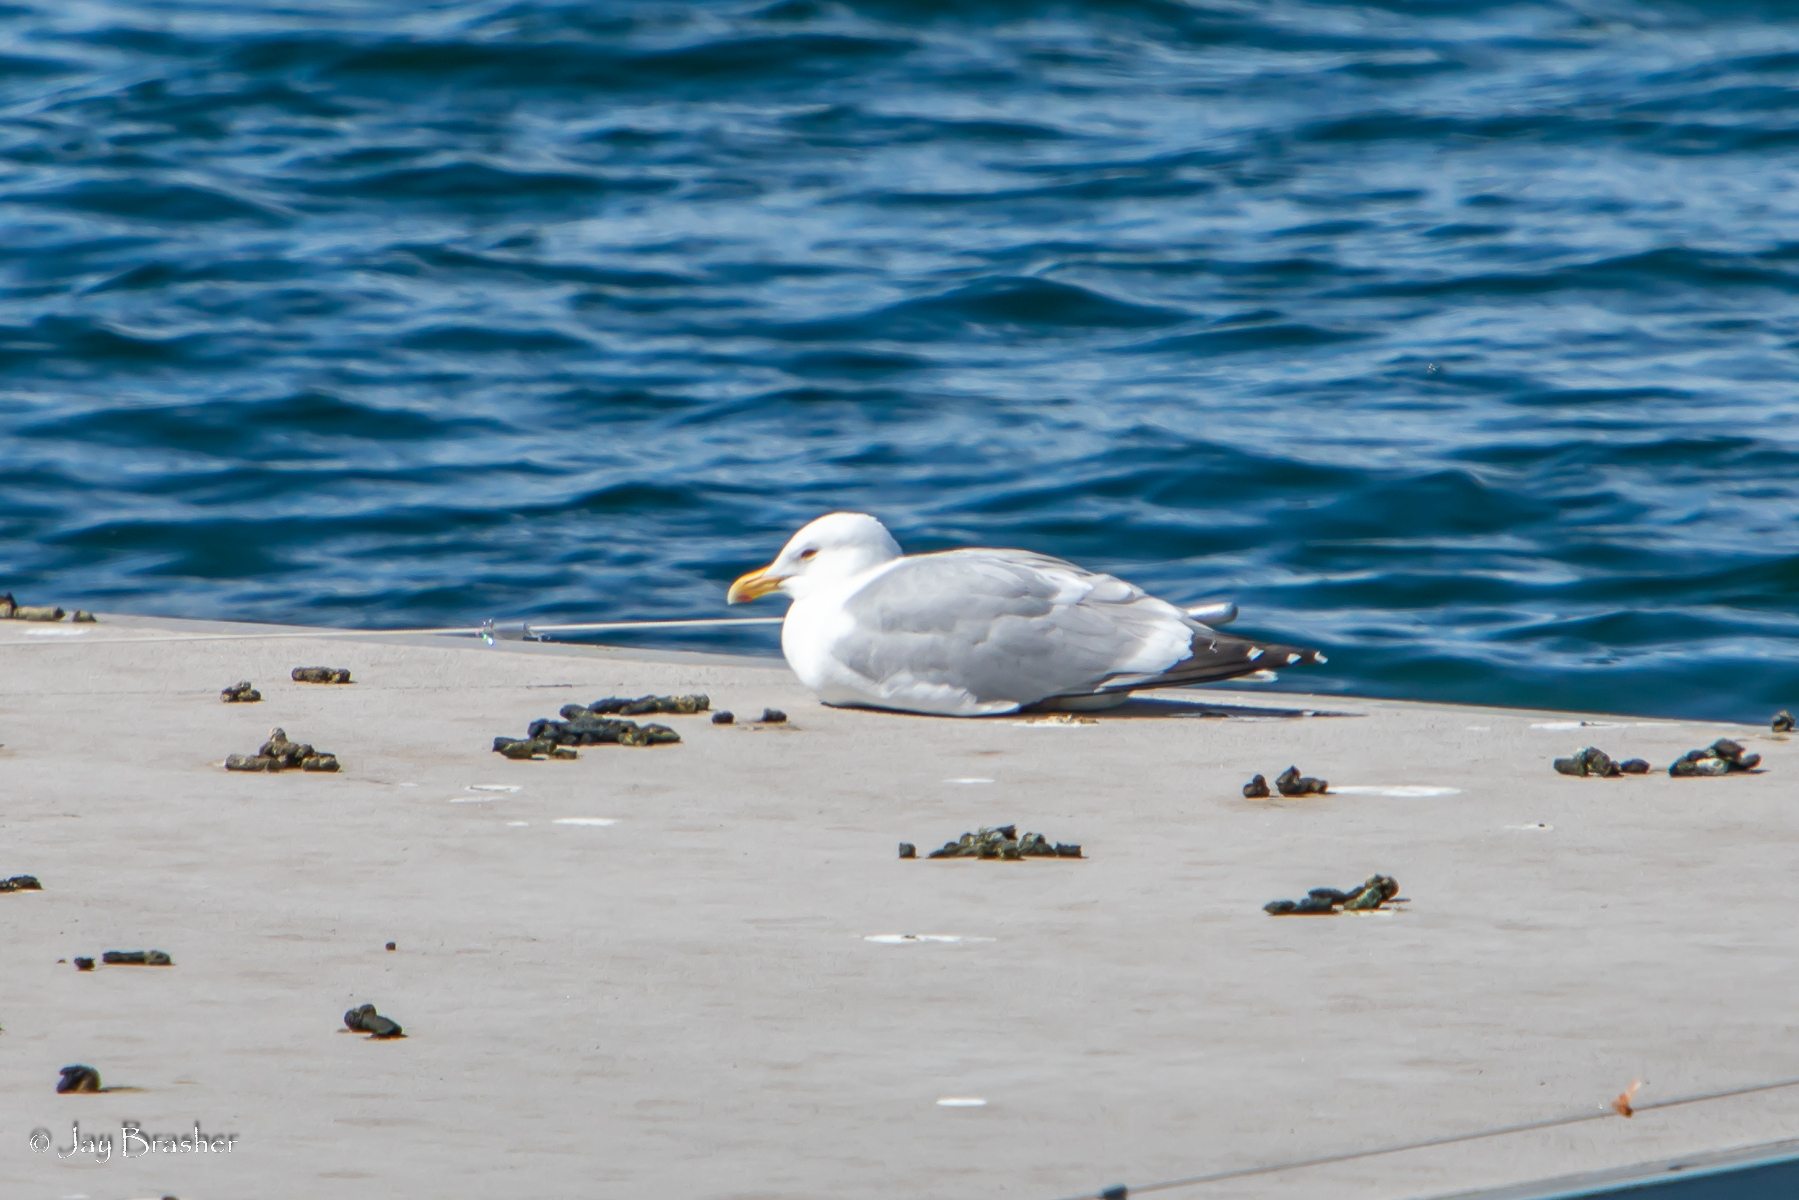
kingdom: Animalia
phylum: Chordata
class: Aves
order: Charadriiformes
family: Laridae
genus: Larus
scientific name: Larus argentatus
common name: Herring gull
